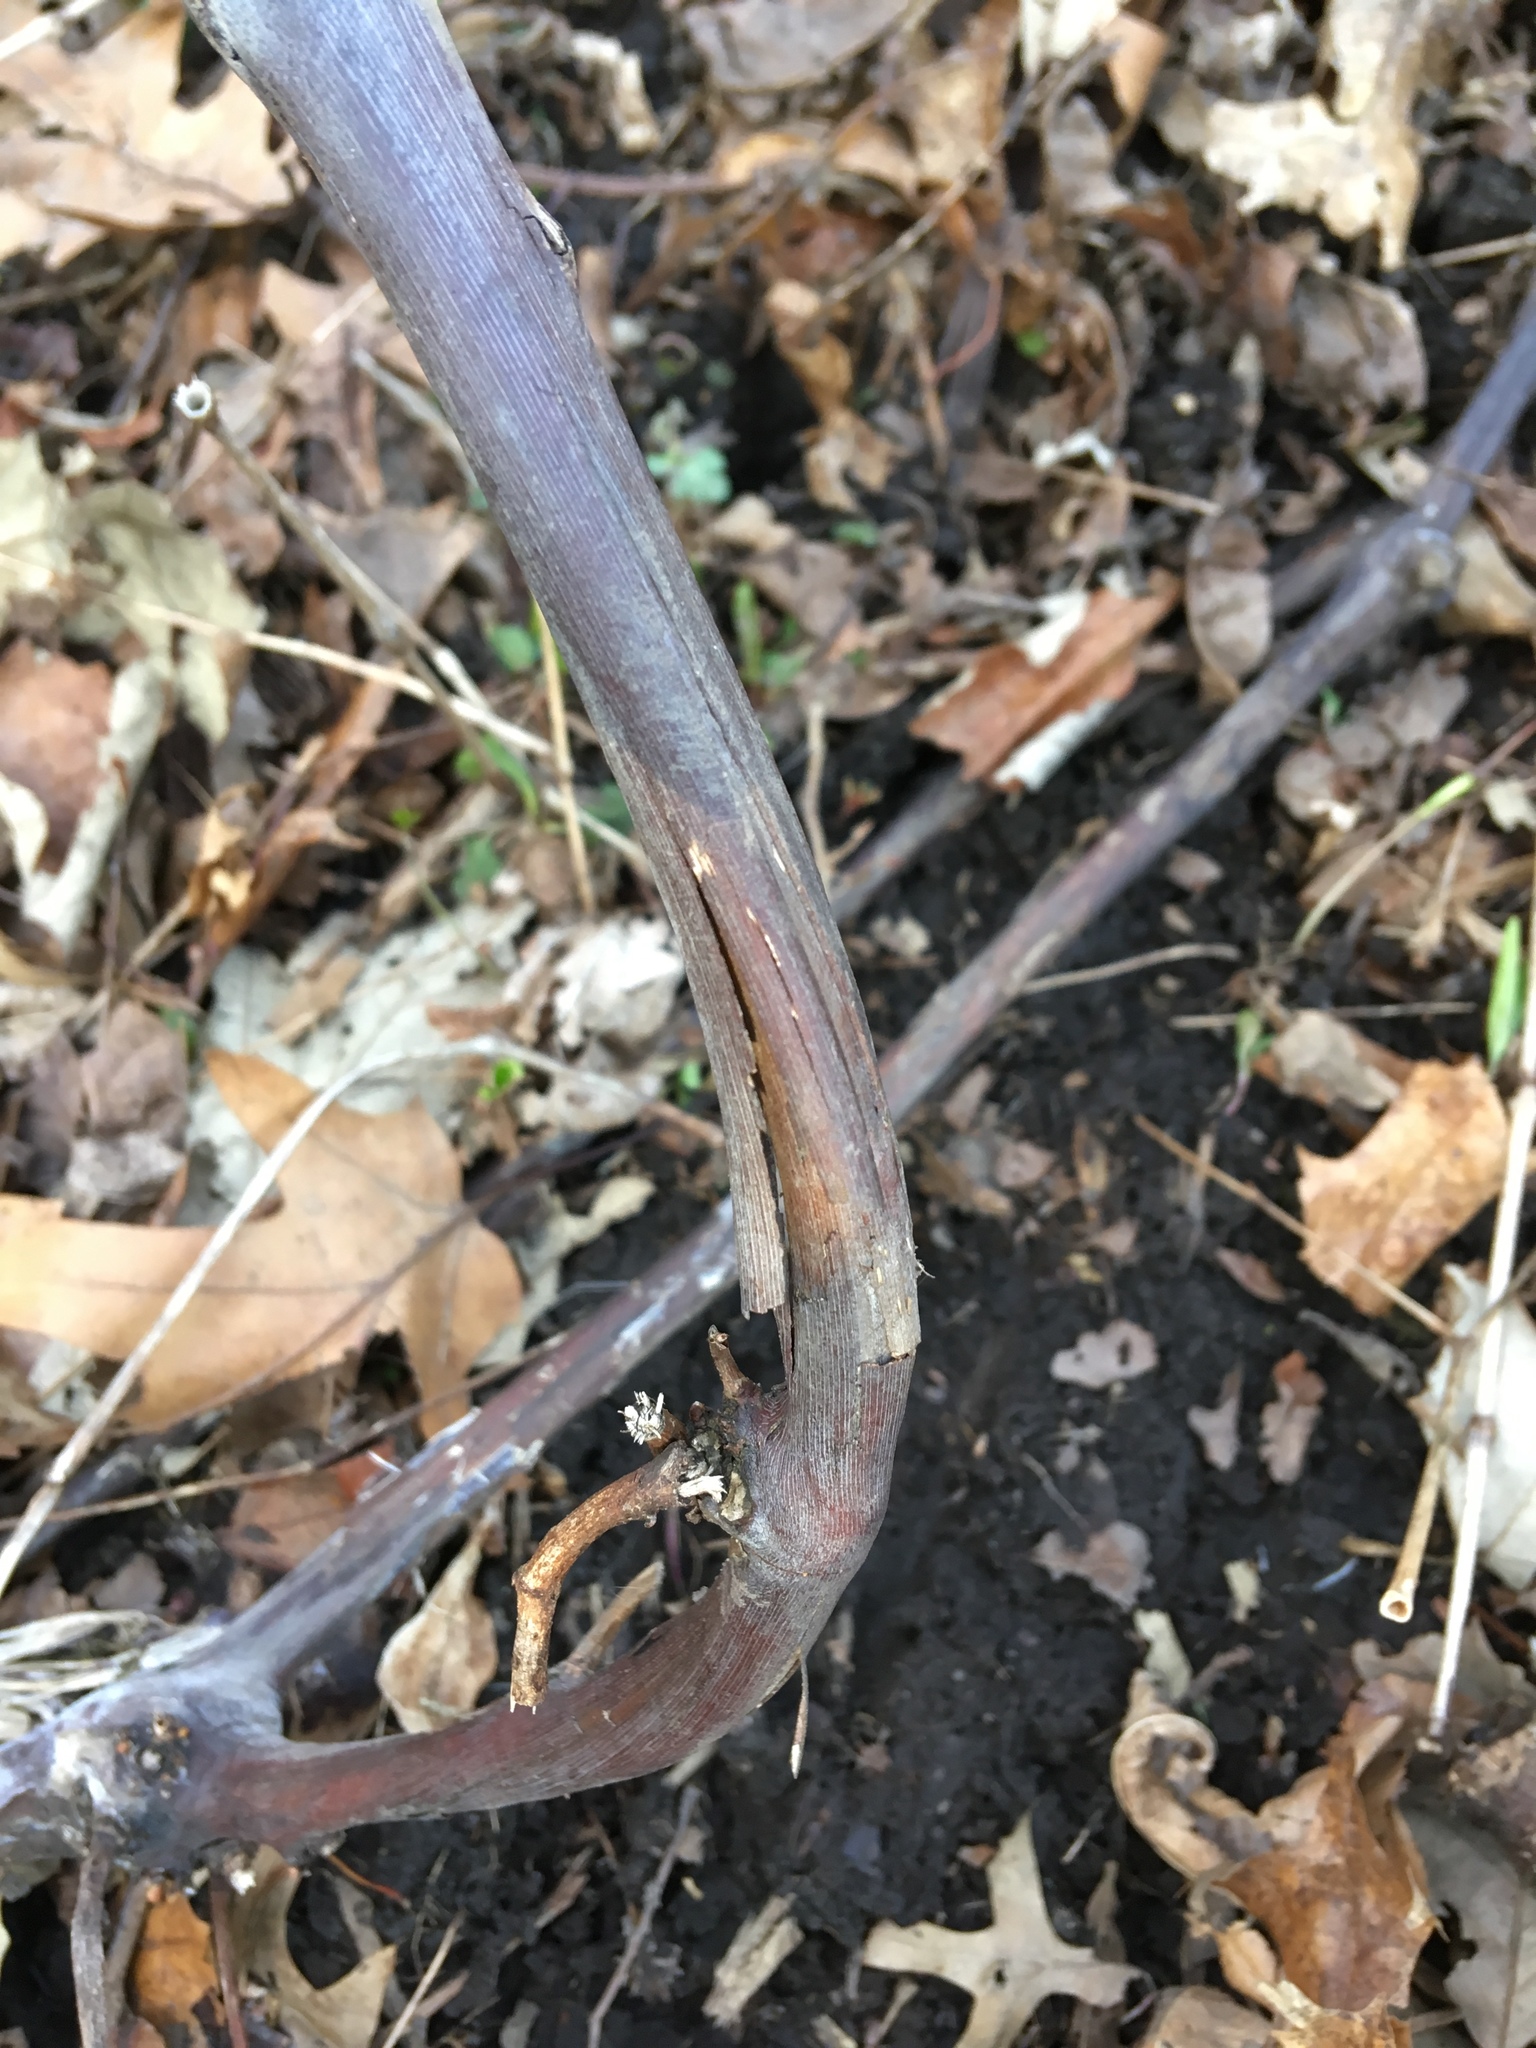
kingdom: Plantae
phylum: Tracheophyta
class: Magnoliopsida
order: Vitales
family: Vitaceae
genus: Vitis
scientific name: Vitis
